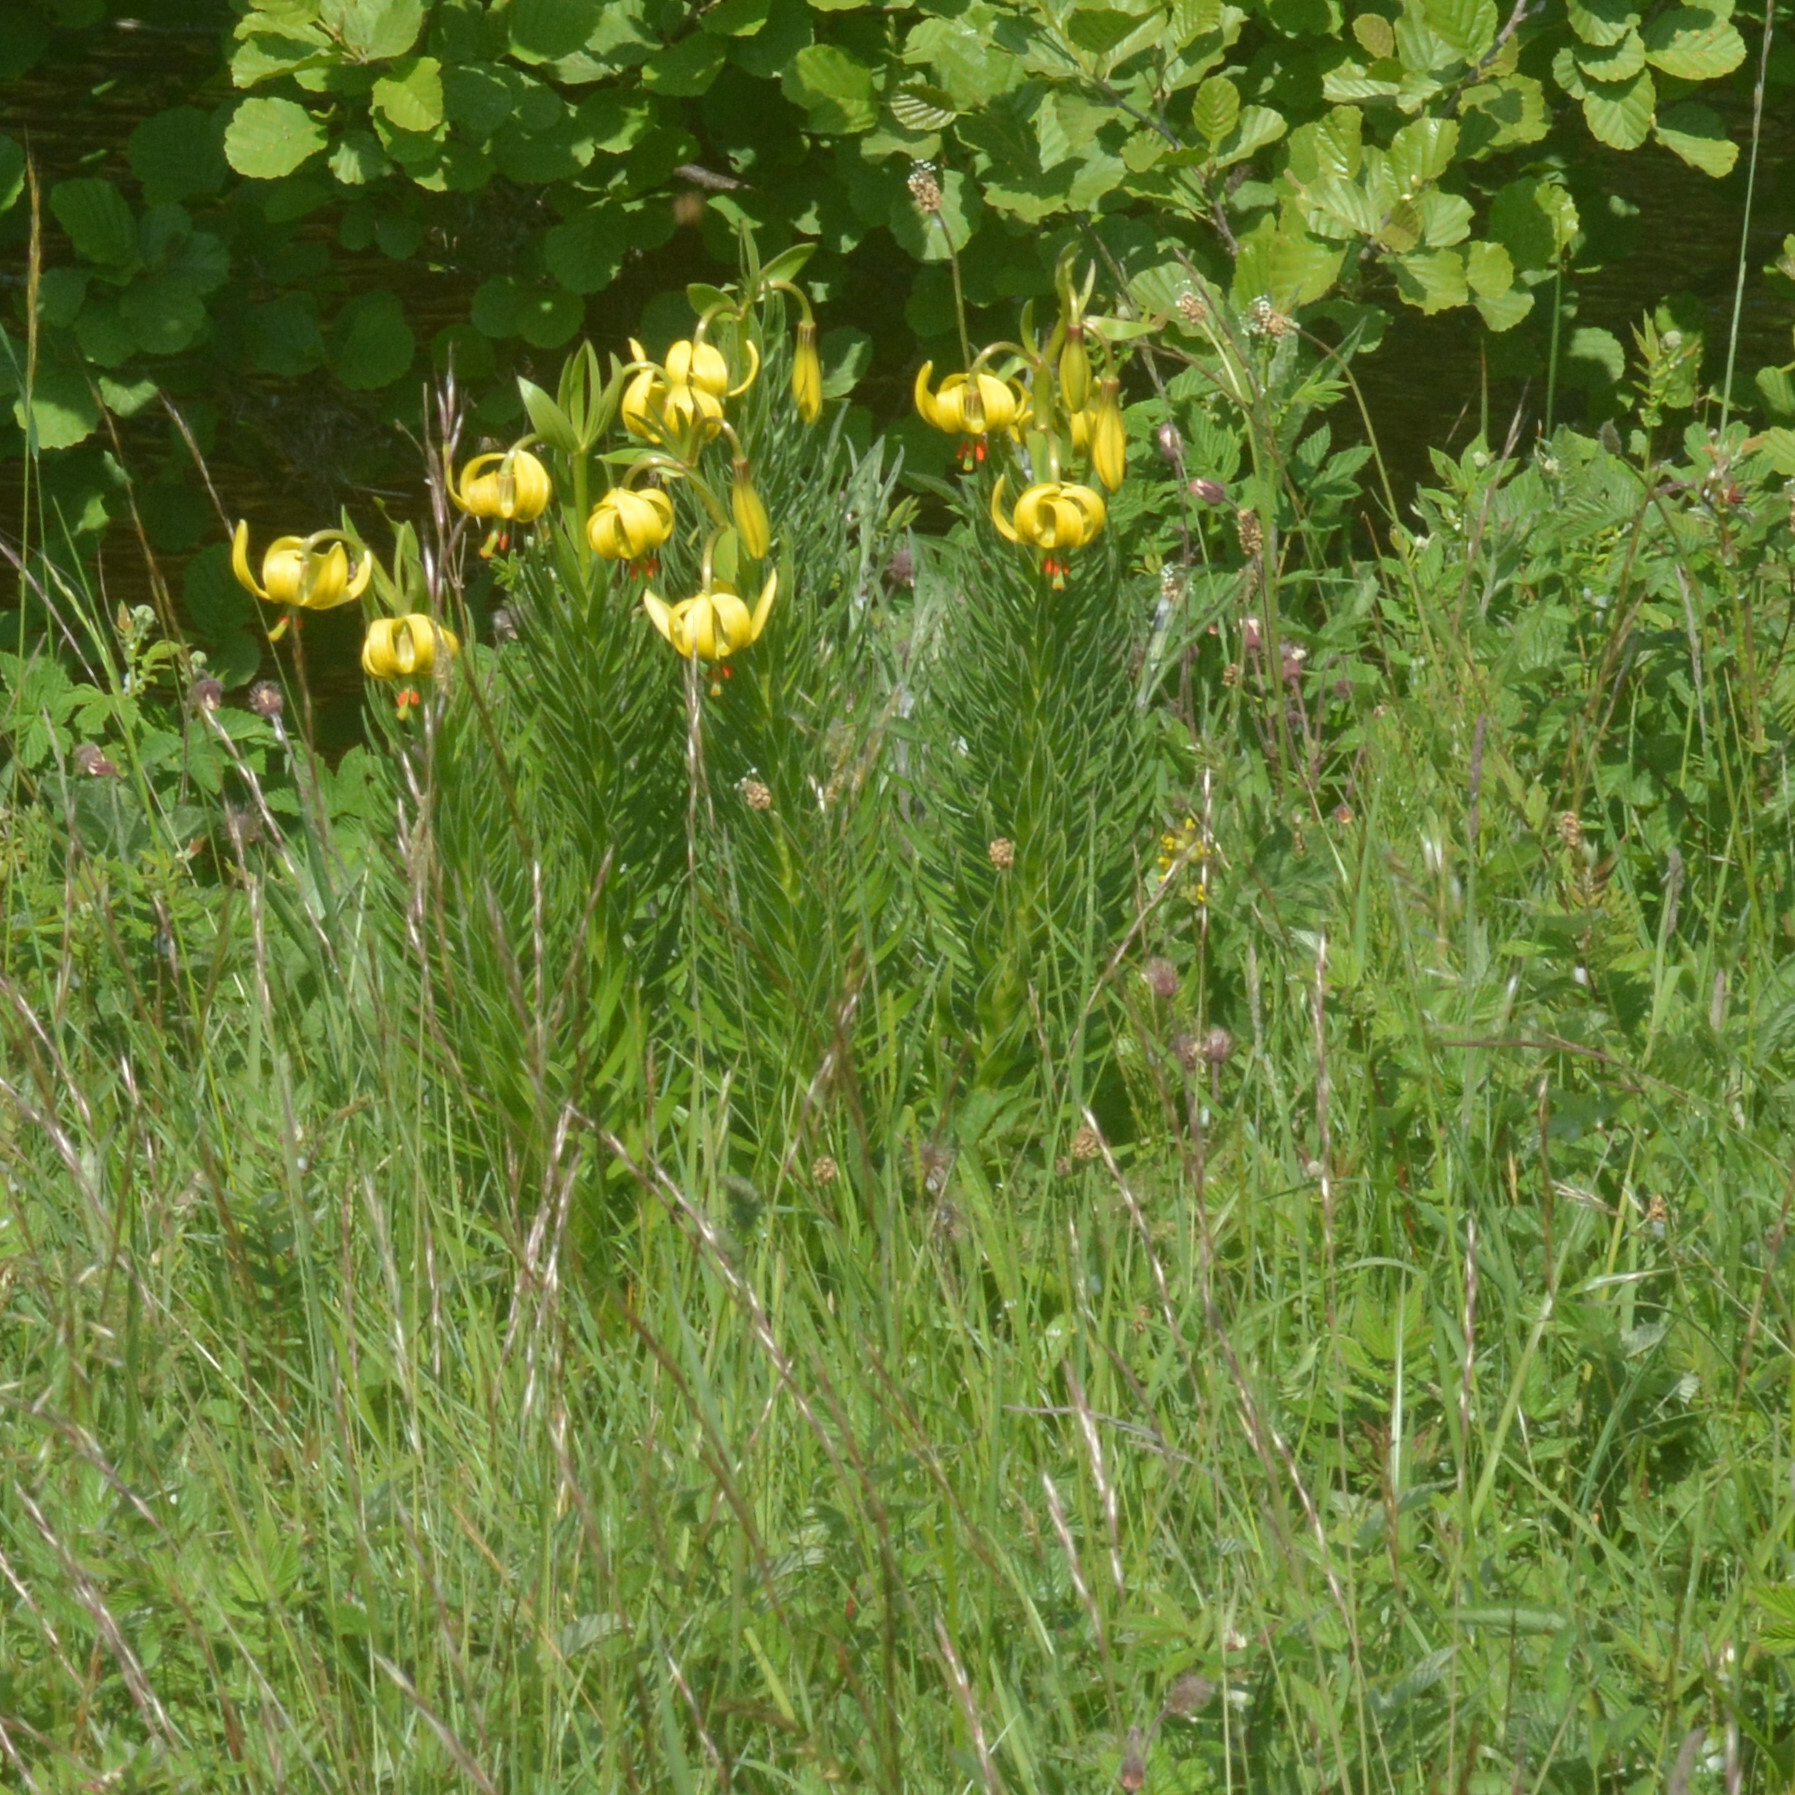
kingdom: Plantae
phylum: Tracheophyta
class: Liliopsida
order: Liliales
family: Liliaceae
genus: Lilium
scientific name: Lilium pyrenaicum
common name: Pyrenean lily
